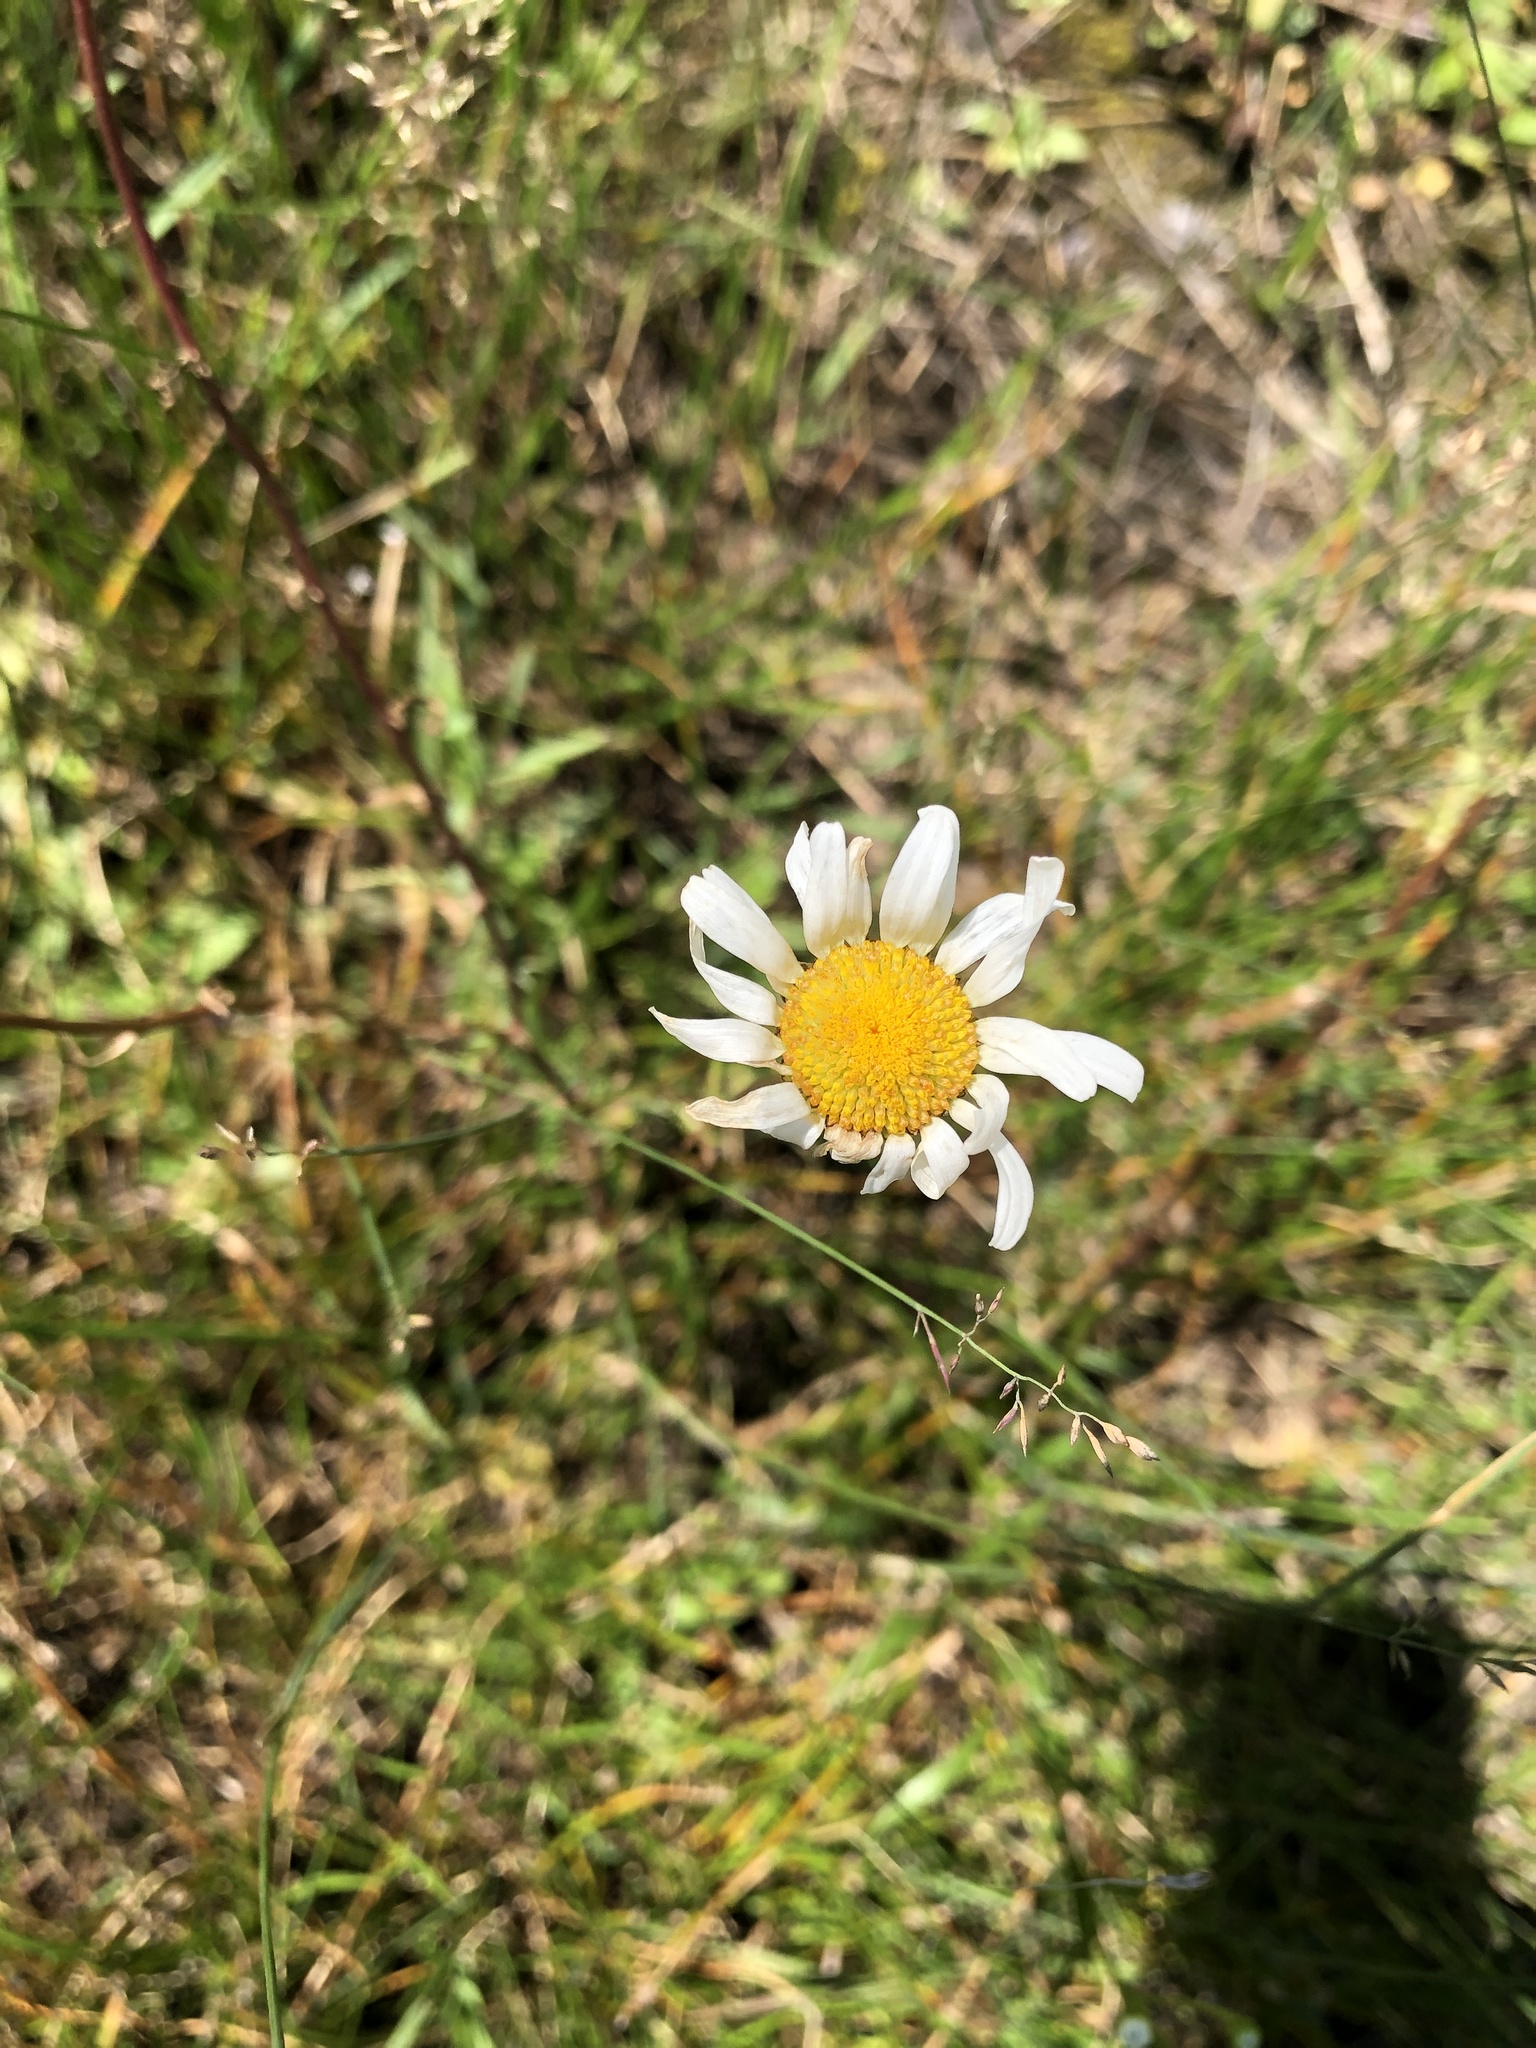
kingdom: Plantae
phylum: Tracheophyta
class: Magnoliopsida
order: Asterales
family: Asteraceae
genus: Leucanthemum
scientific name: Leucanthemum vulgare
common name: Oxeye daisy
